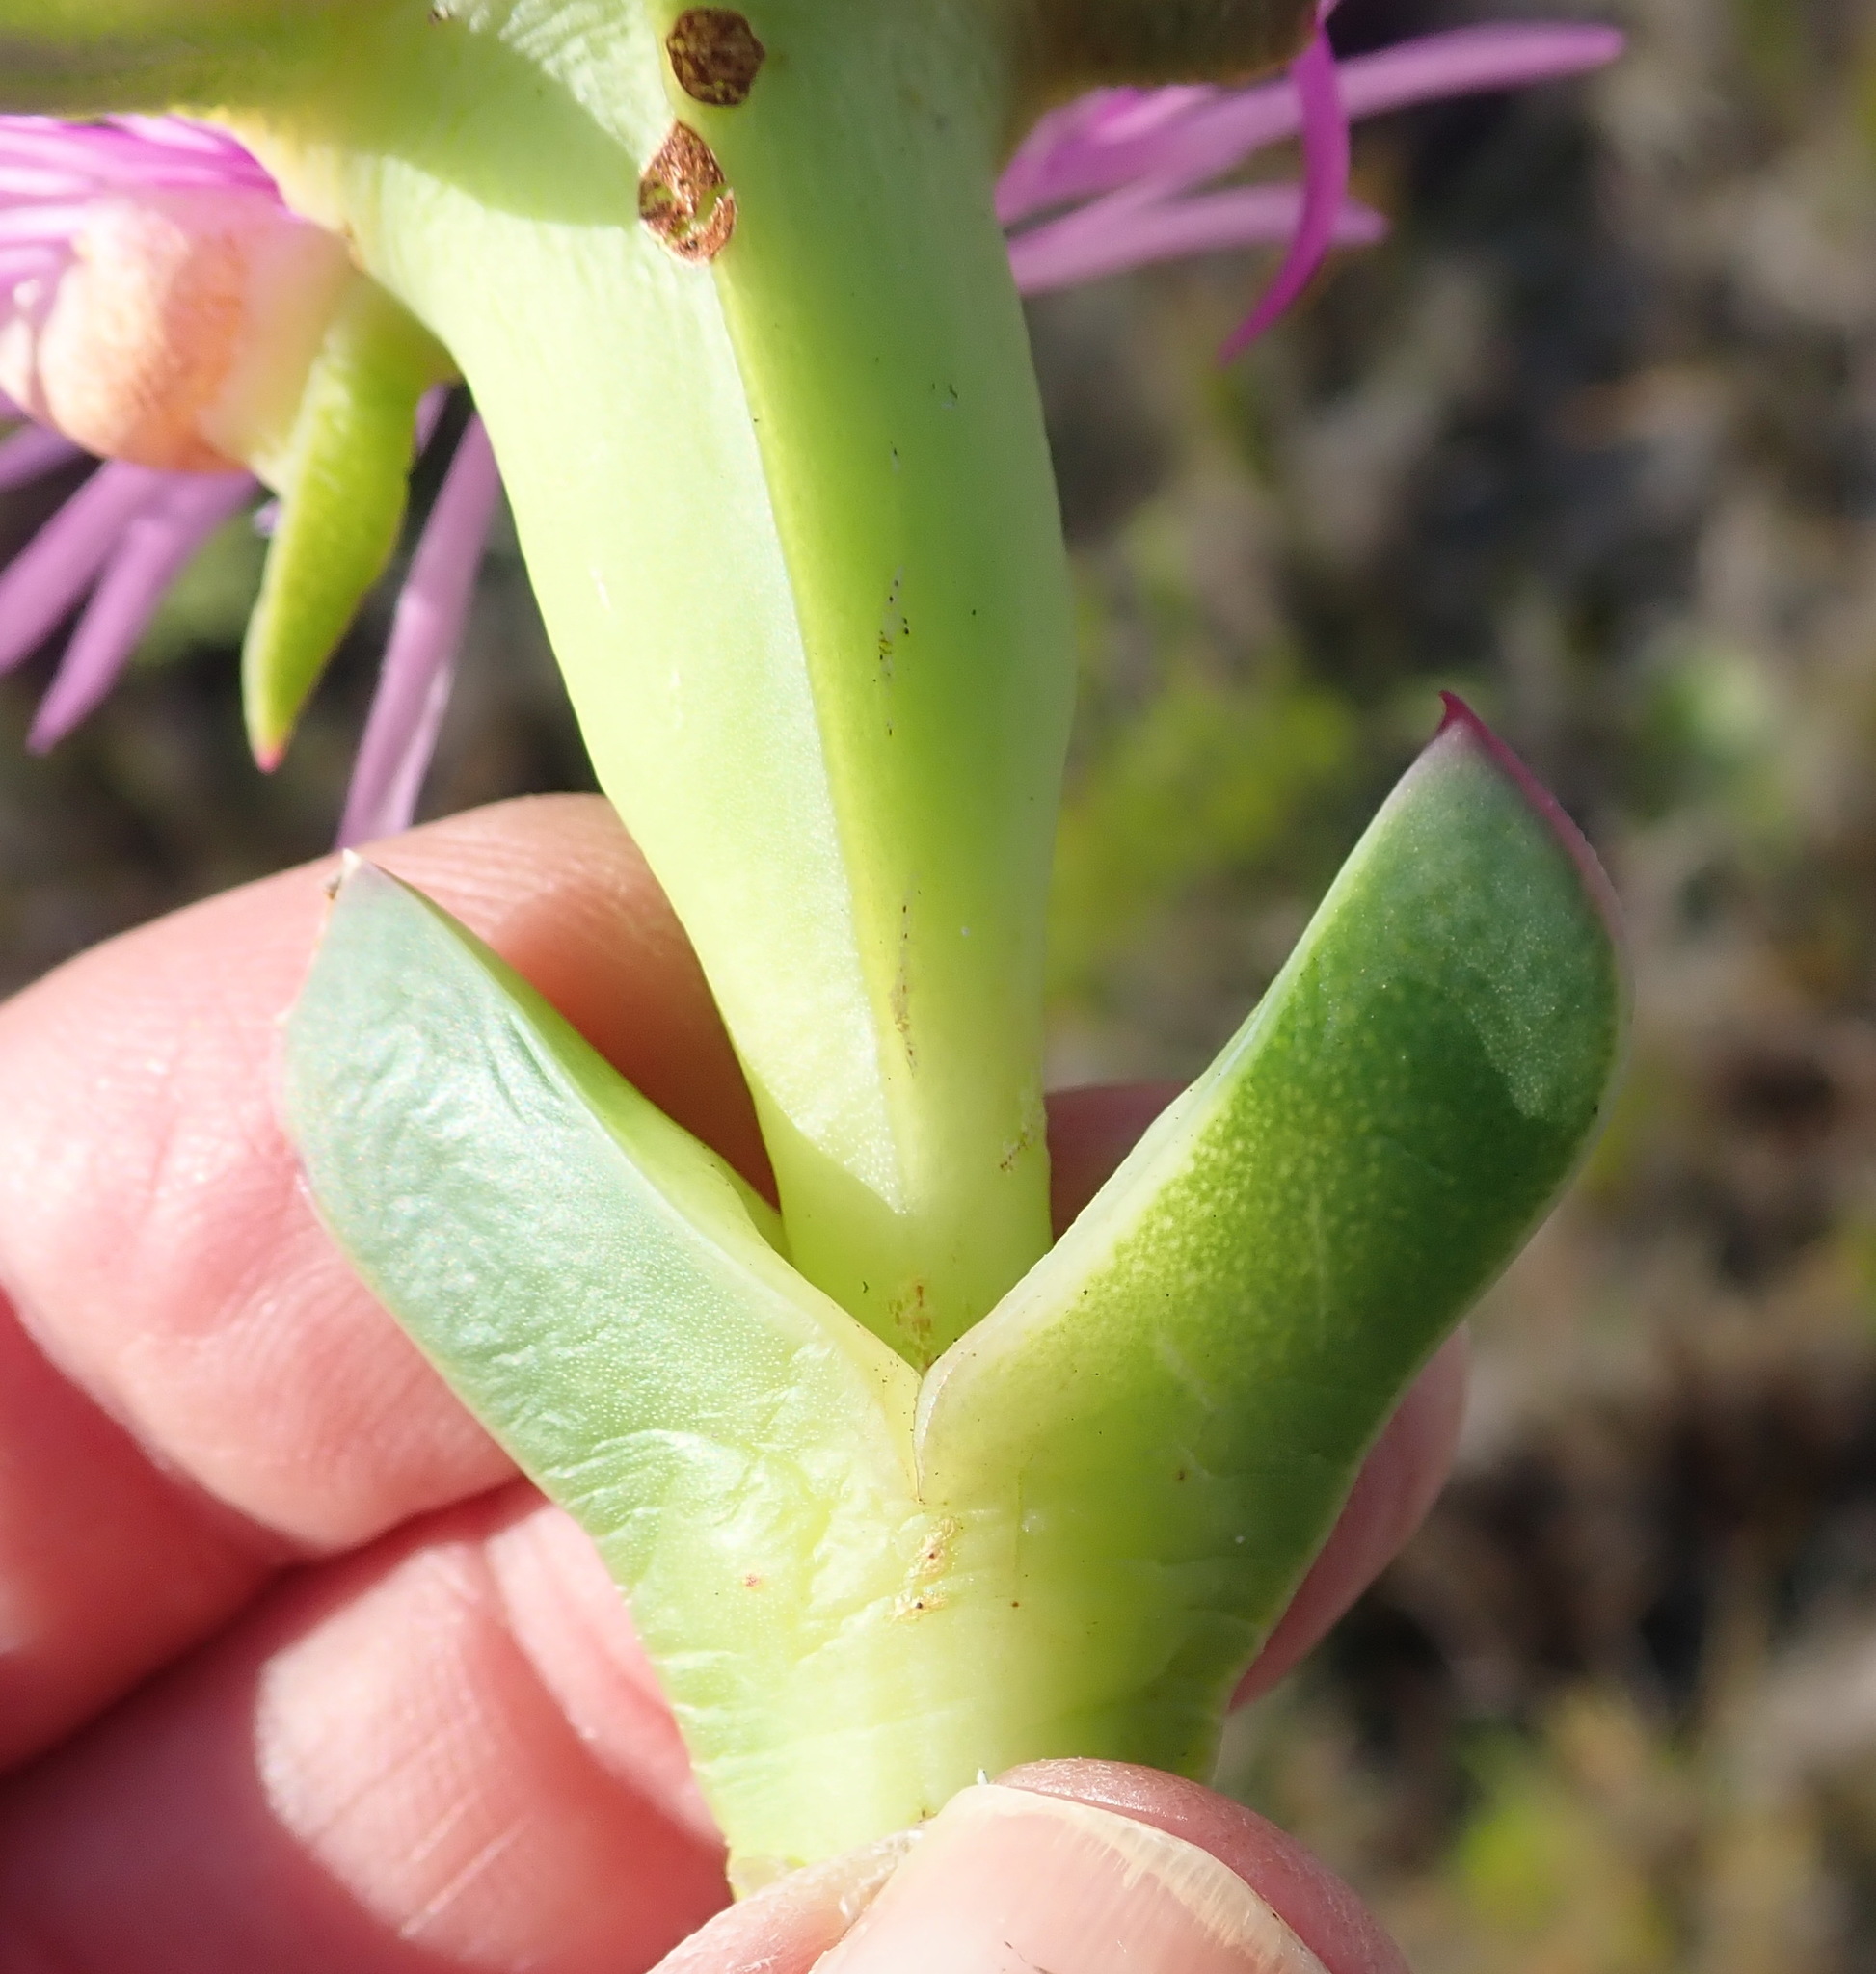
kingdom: Plantae
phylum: Tracheophyta
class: Magnoliopsida
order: Caryophyllales
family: Aizoaceae
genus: Carpobrotus
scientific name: Carpobrotus acinaciformis
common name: Sally-my-handsome
